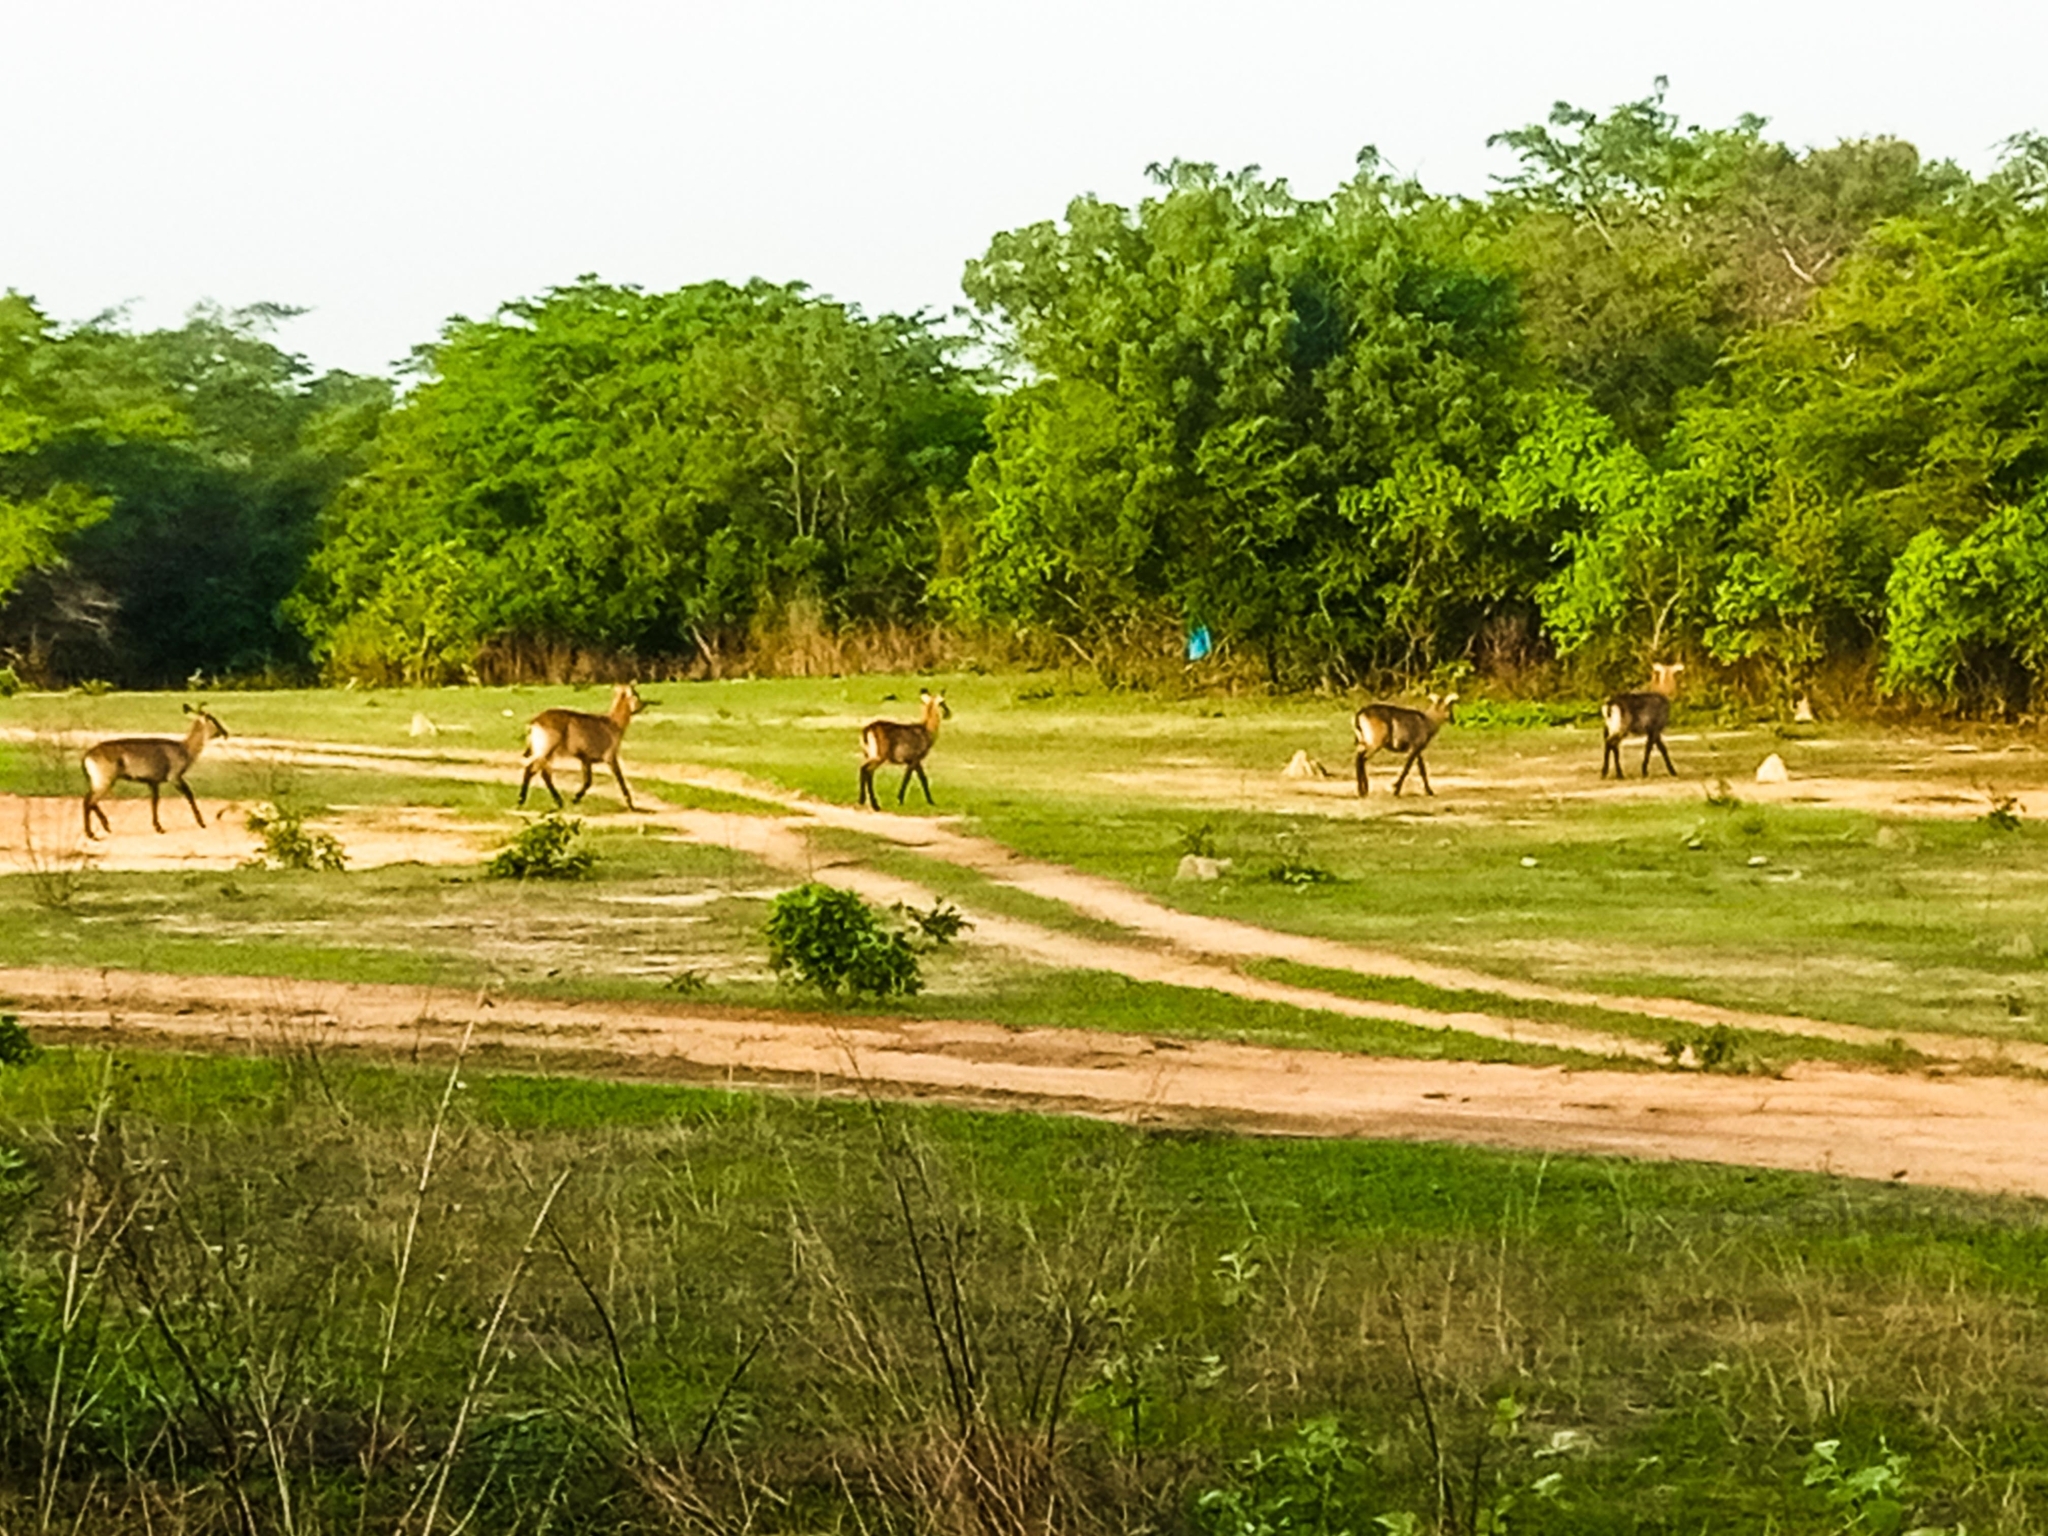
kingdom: Animalia
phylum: Chordata
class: Mammalia
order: Artiodactyla
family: Bovidae
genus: Kobus
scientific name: Kobus ellipsiprymnus
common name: Waterbuck
